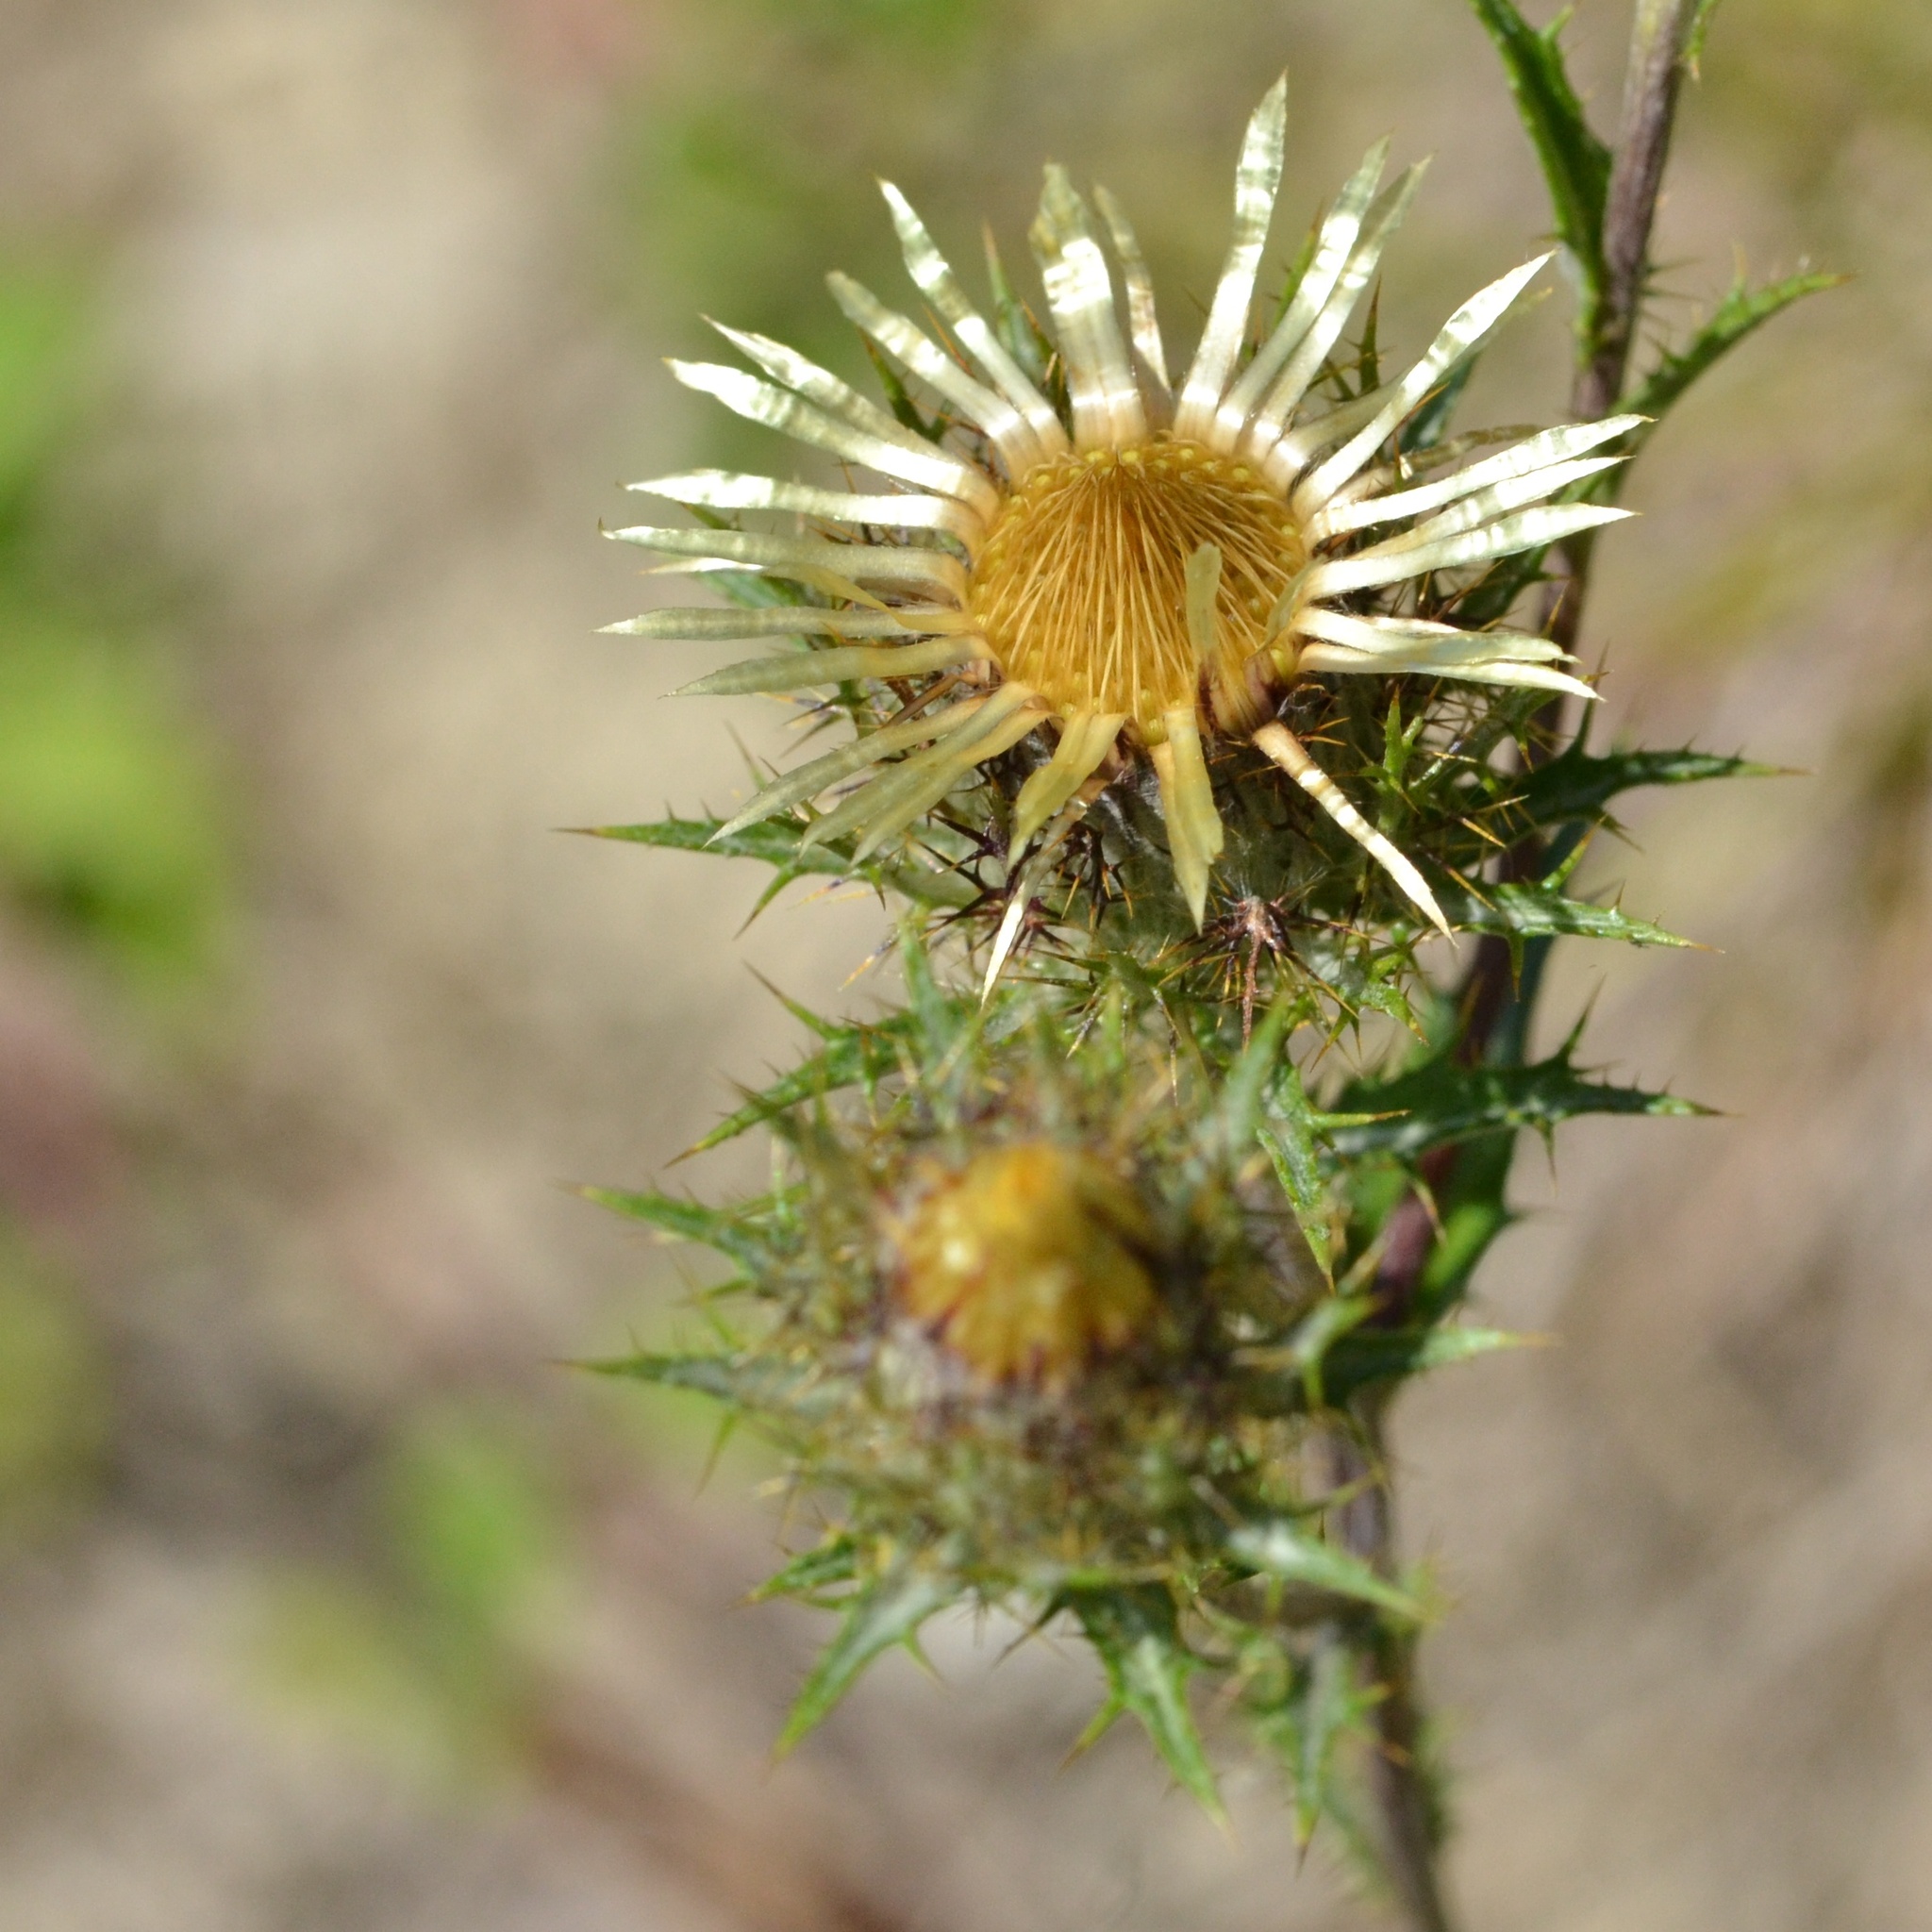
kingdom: Plantae
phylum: Tracheophyta
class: Magnoliopsida
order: Asterales
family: Asteraceae
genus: Carlina
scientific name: Carlina vulgaris
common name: Carline thistle
